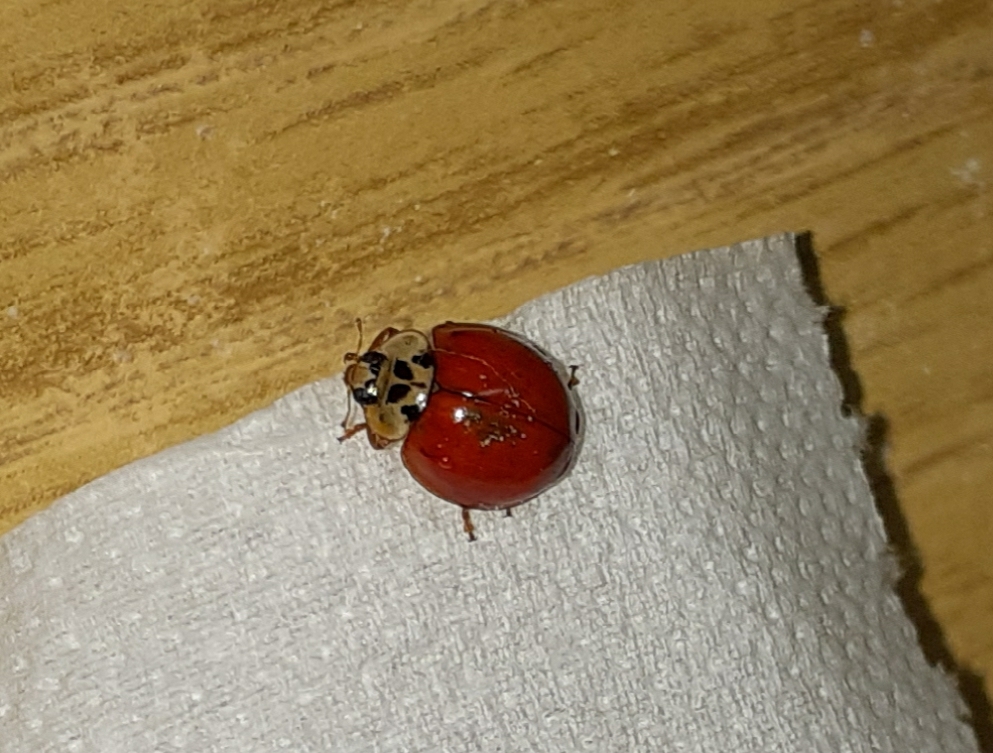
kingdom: Animalia
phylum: Arthropoda
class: Insecta
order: Coleoptera
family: Coccinellidae
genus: Harmonia
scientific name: Harmonia axyridis
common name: Harlequin ladybird
